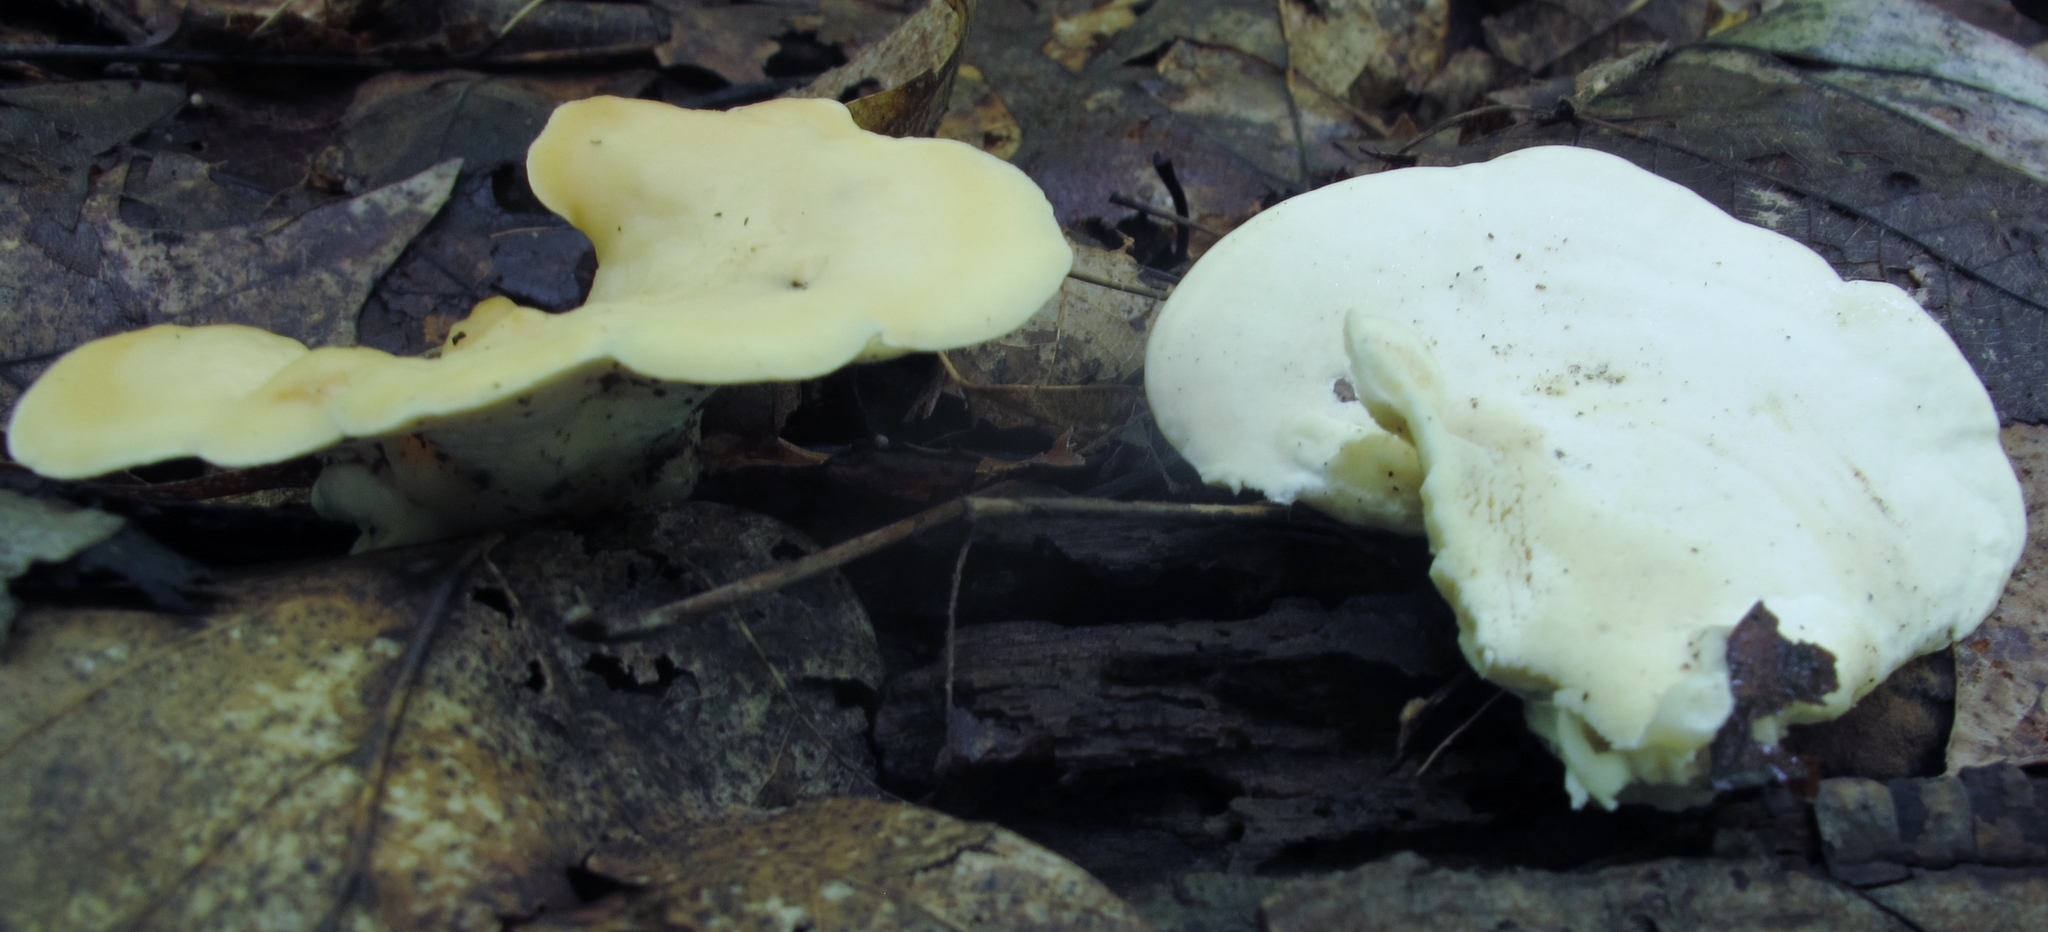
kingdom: Fungi
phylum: Basidiomycota
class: Agaricomycetes
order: Polyporales
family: Steccherinaceae
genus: Loweomyces
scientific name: Loweomyces fractipes
